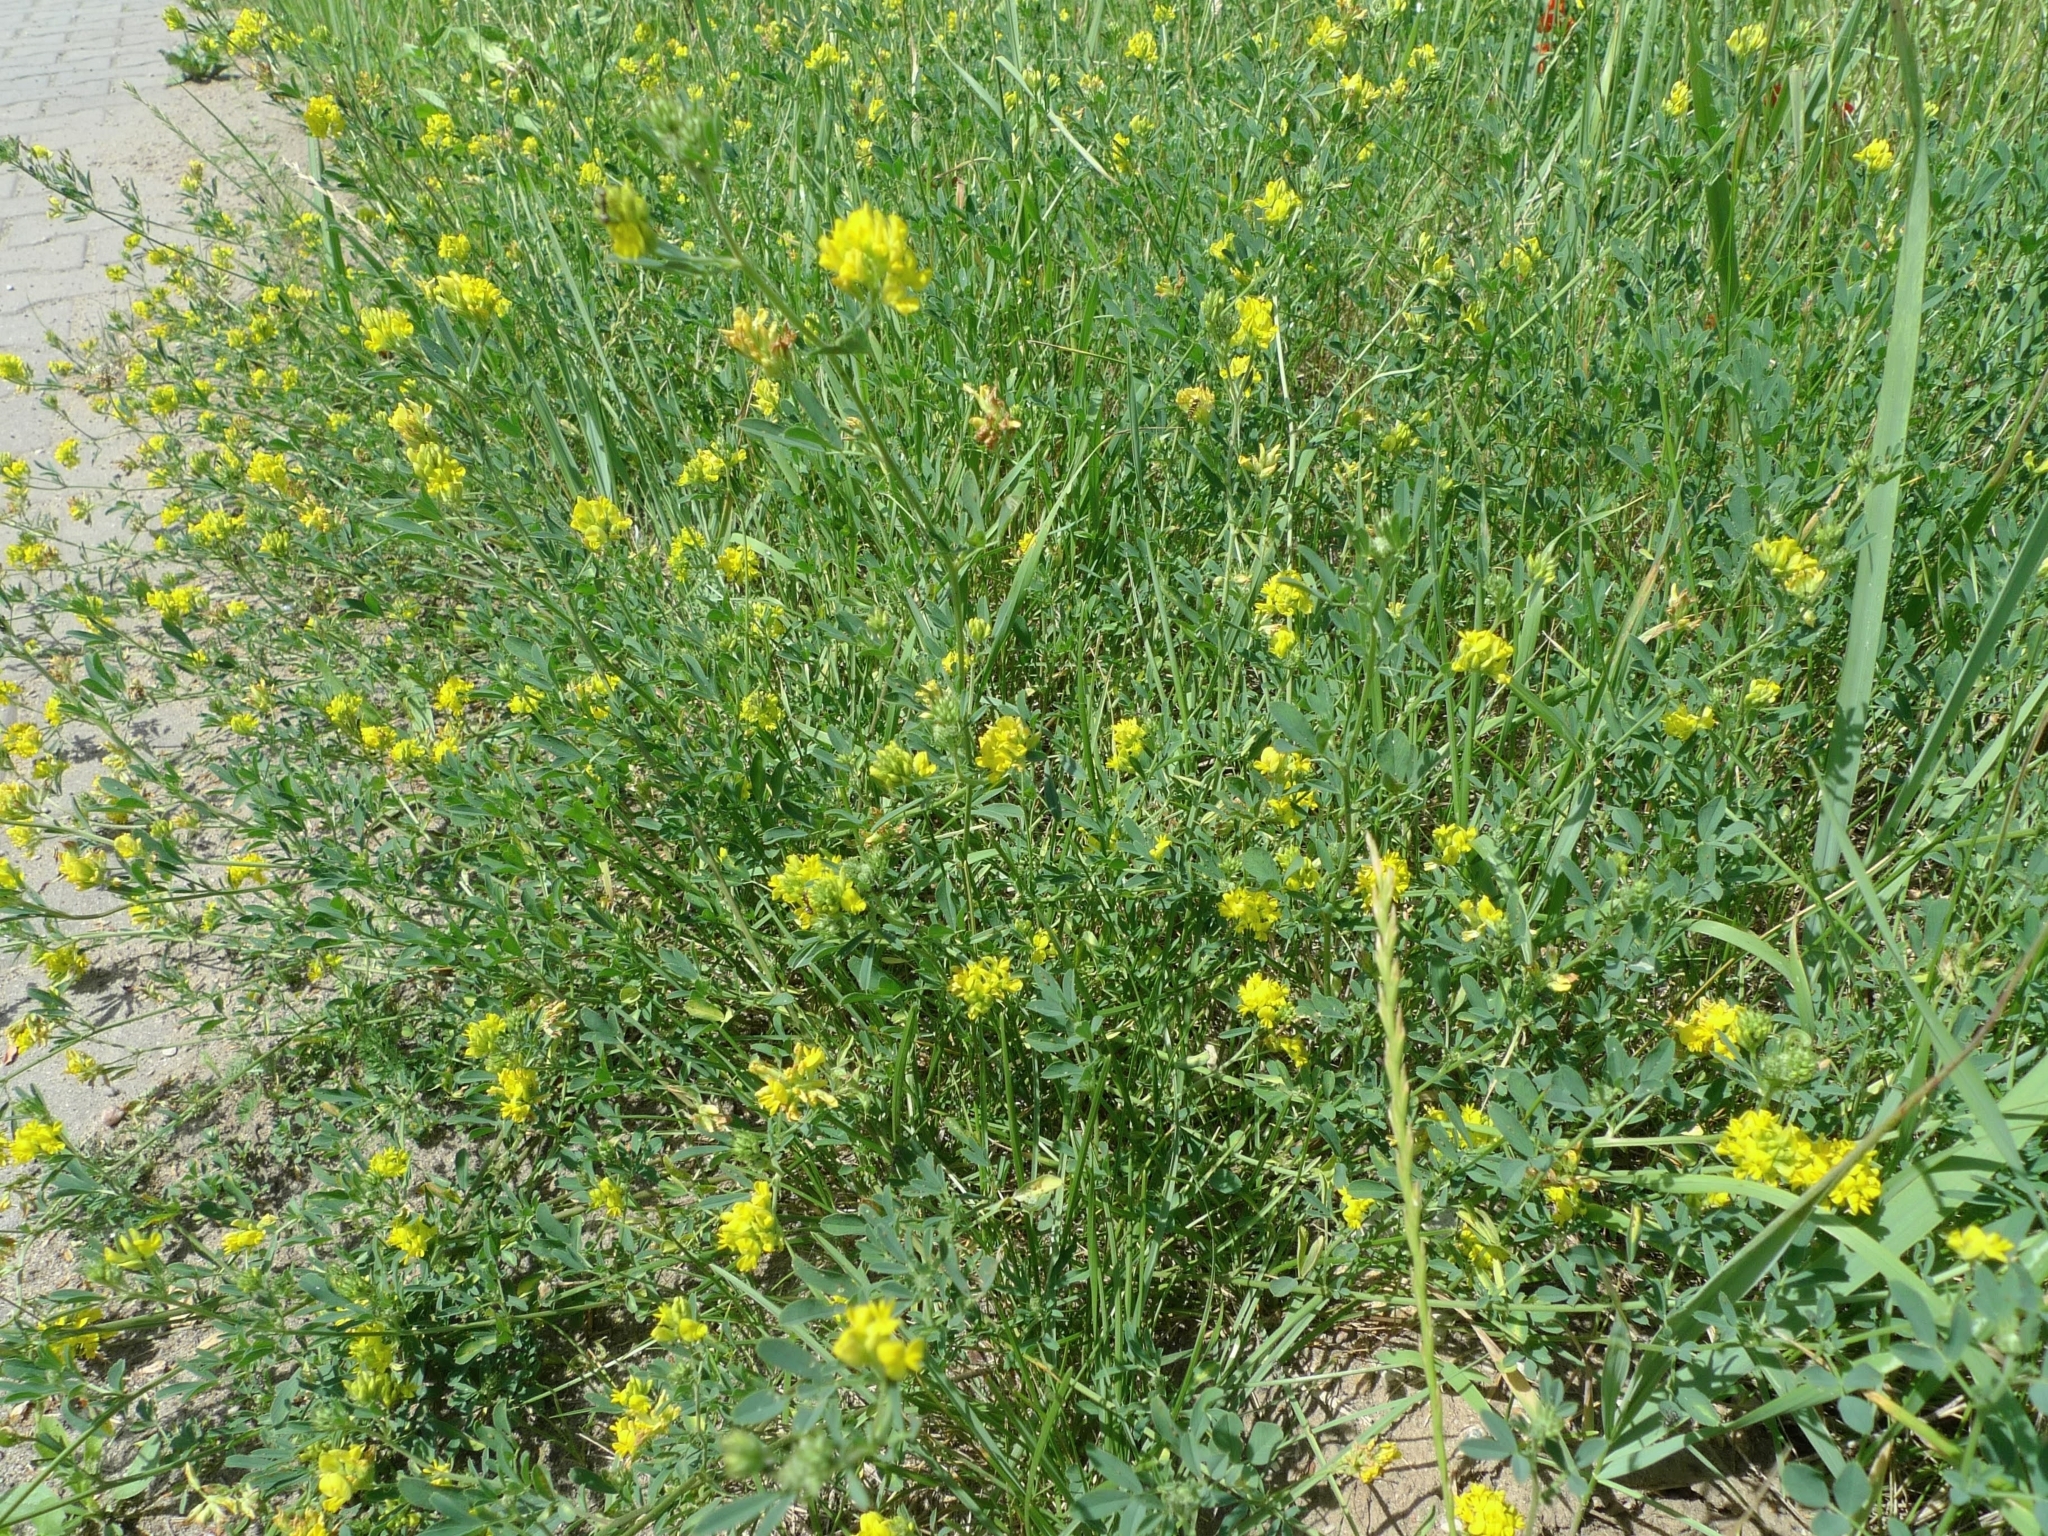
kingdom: Plantae
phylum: Tracheophyta
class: Magnoliopsida
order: Fabales
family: Fabaceae
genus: Medicago
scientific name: Medicago falcata
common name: Sickle medick
